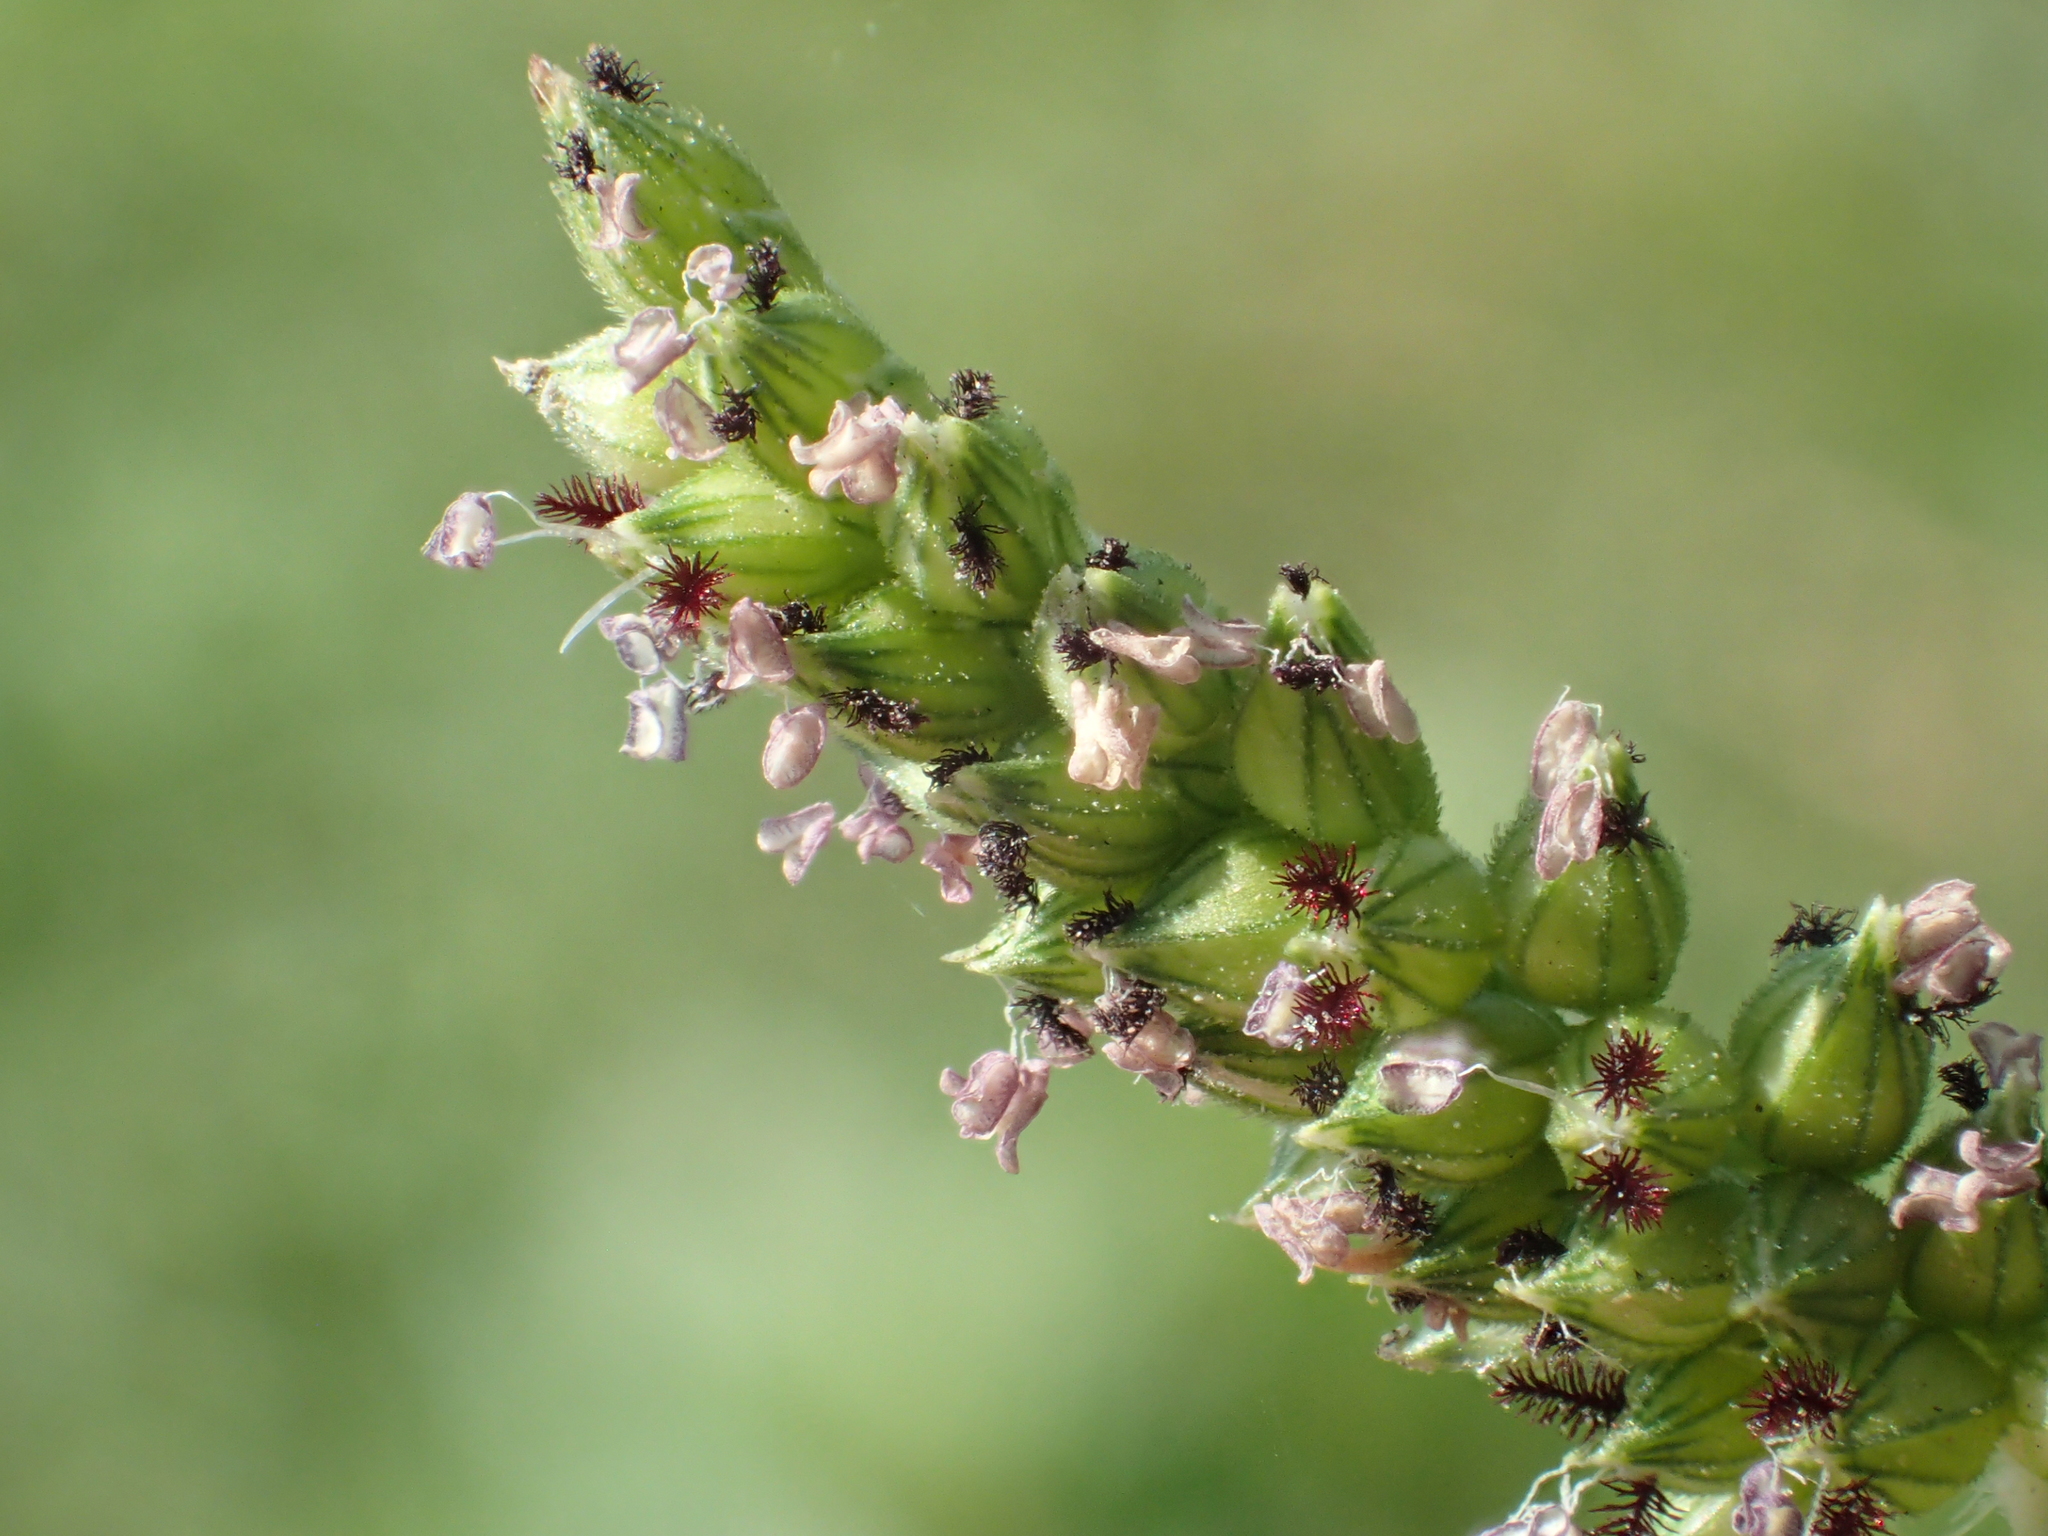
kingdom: Plantae
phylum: Tracheophyta
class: Liliopsida
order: Poales
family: Poaceae
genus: Echinochloa
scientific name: Echinochloa colonum
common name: Jungle rice
